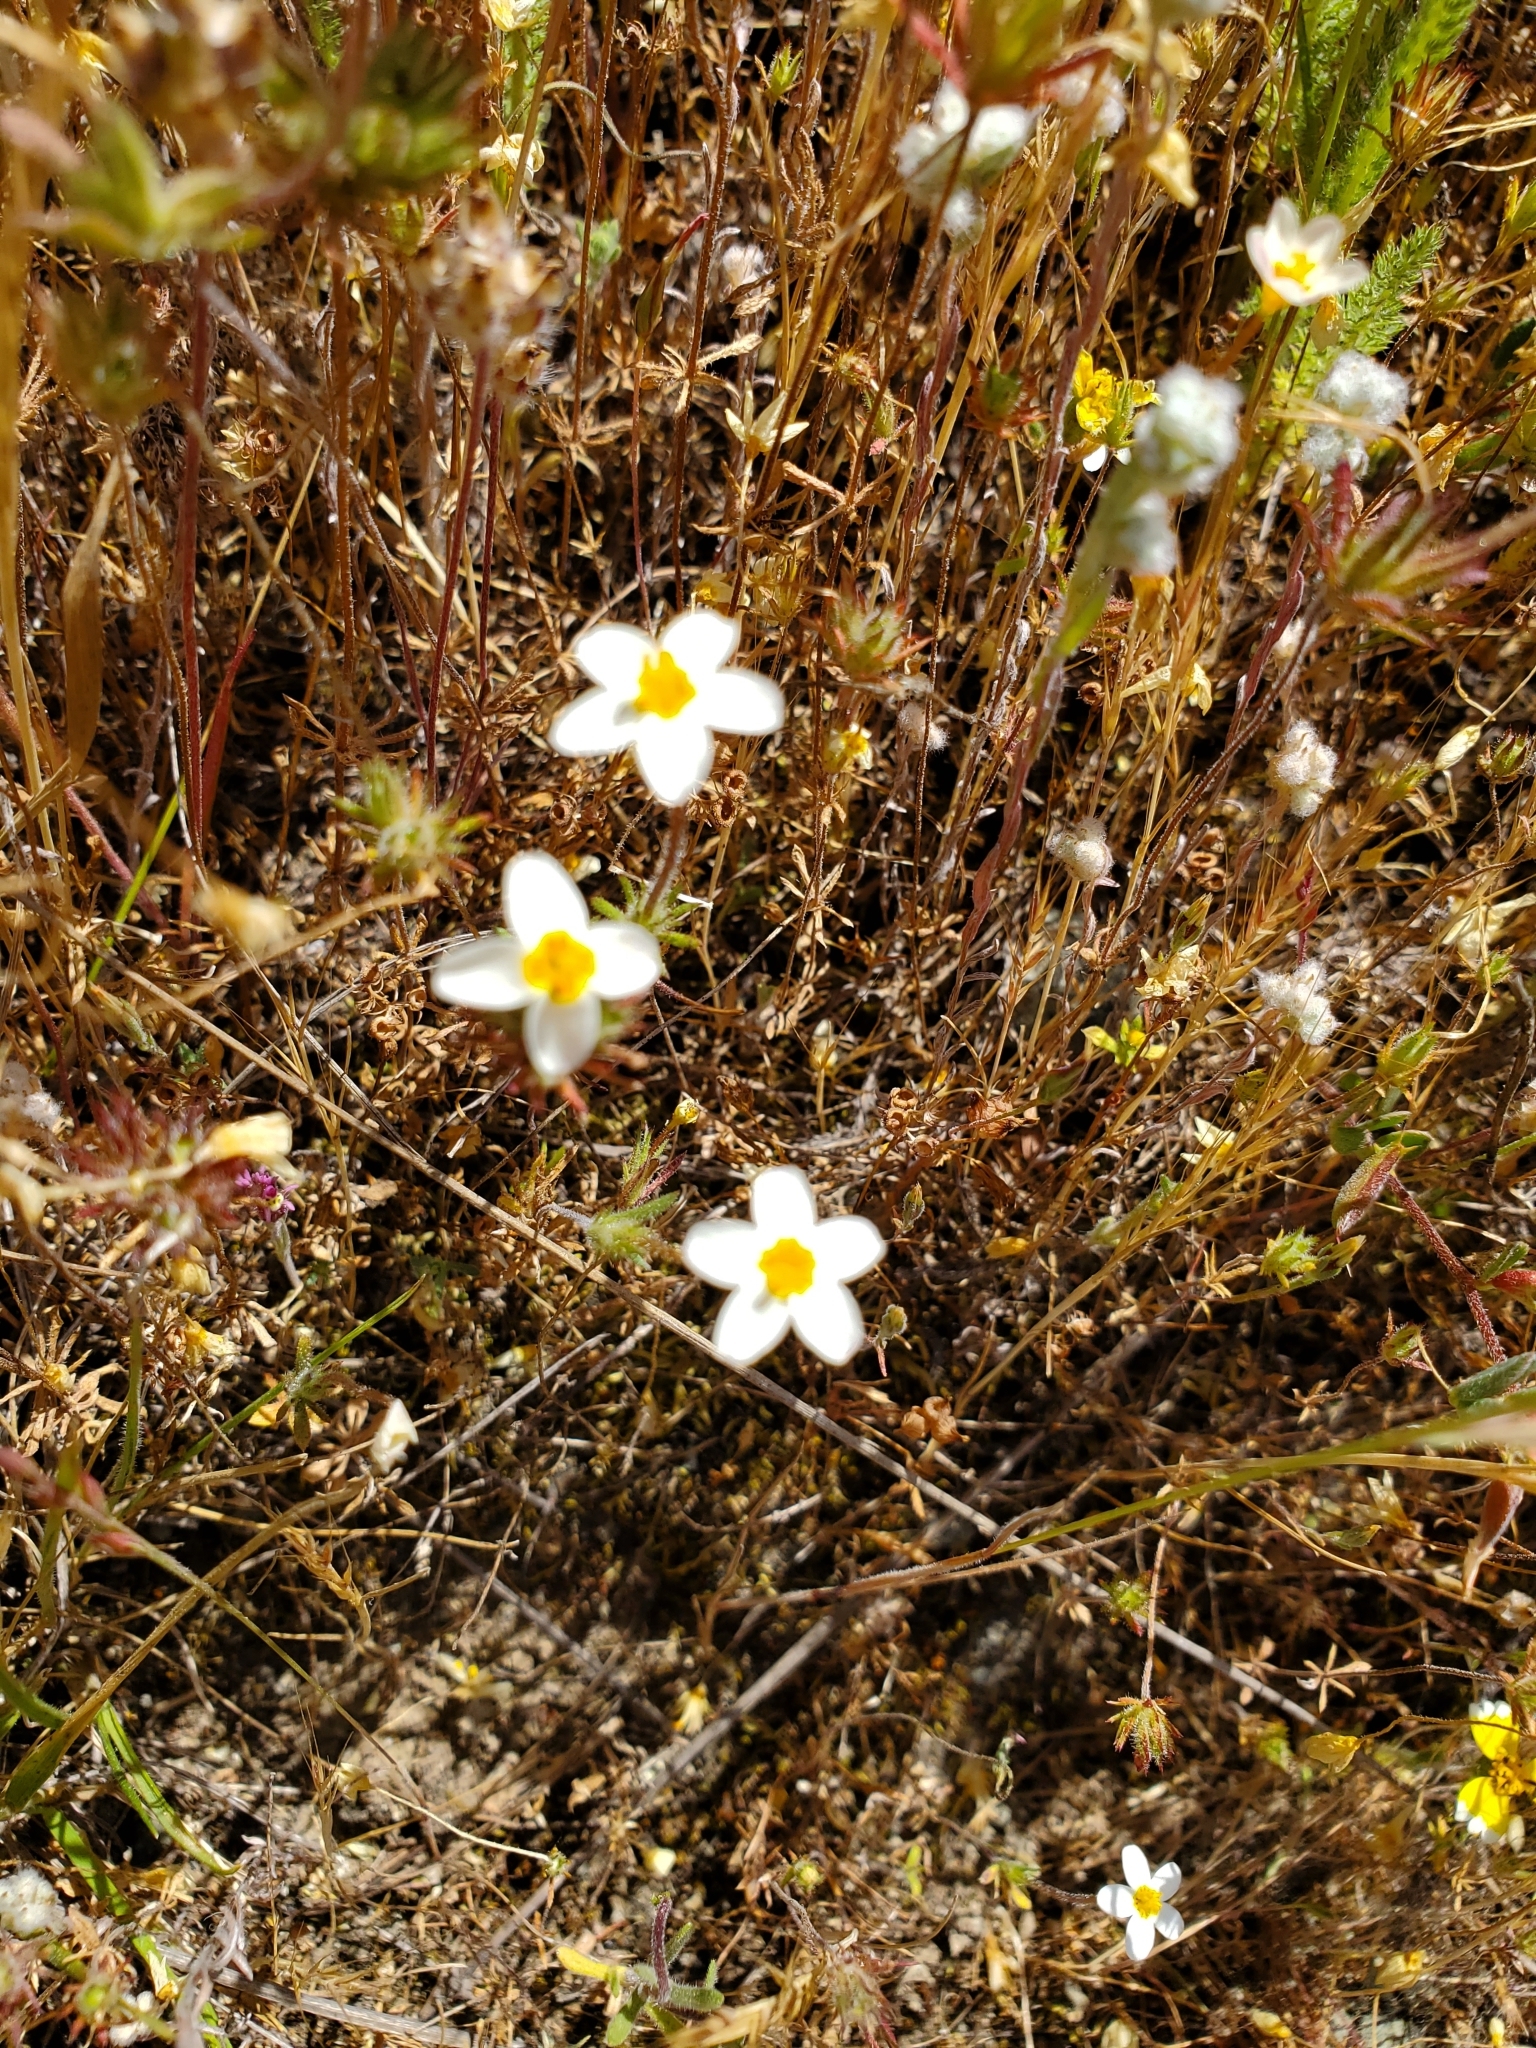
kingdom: Plantae
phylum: Tracheophyta
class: Magnoliopsida
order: Ericales
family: Polemoniaceae
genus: Leptosiphon
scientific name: Leptosiphon parviflorus
